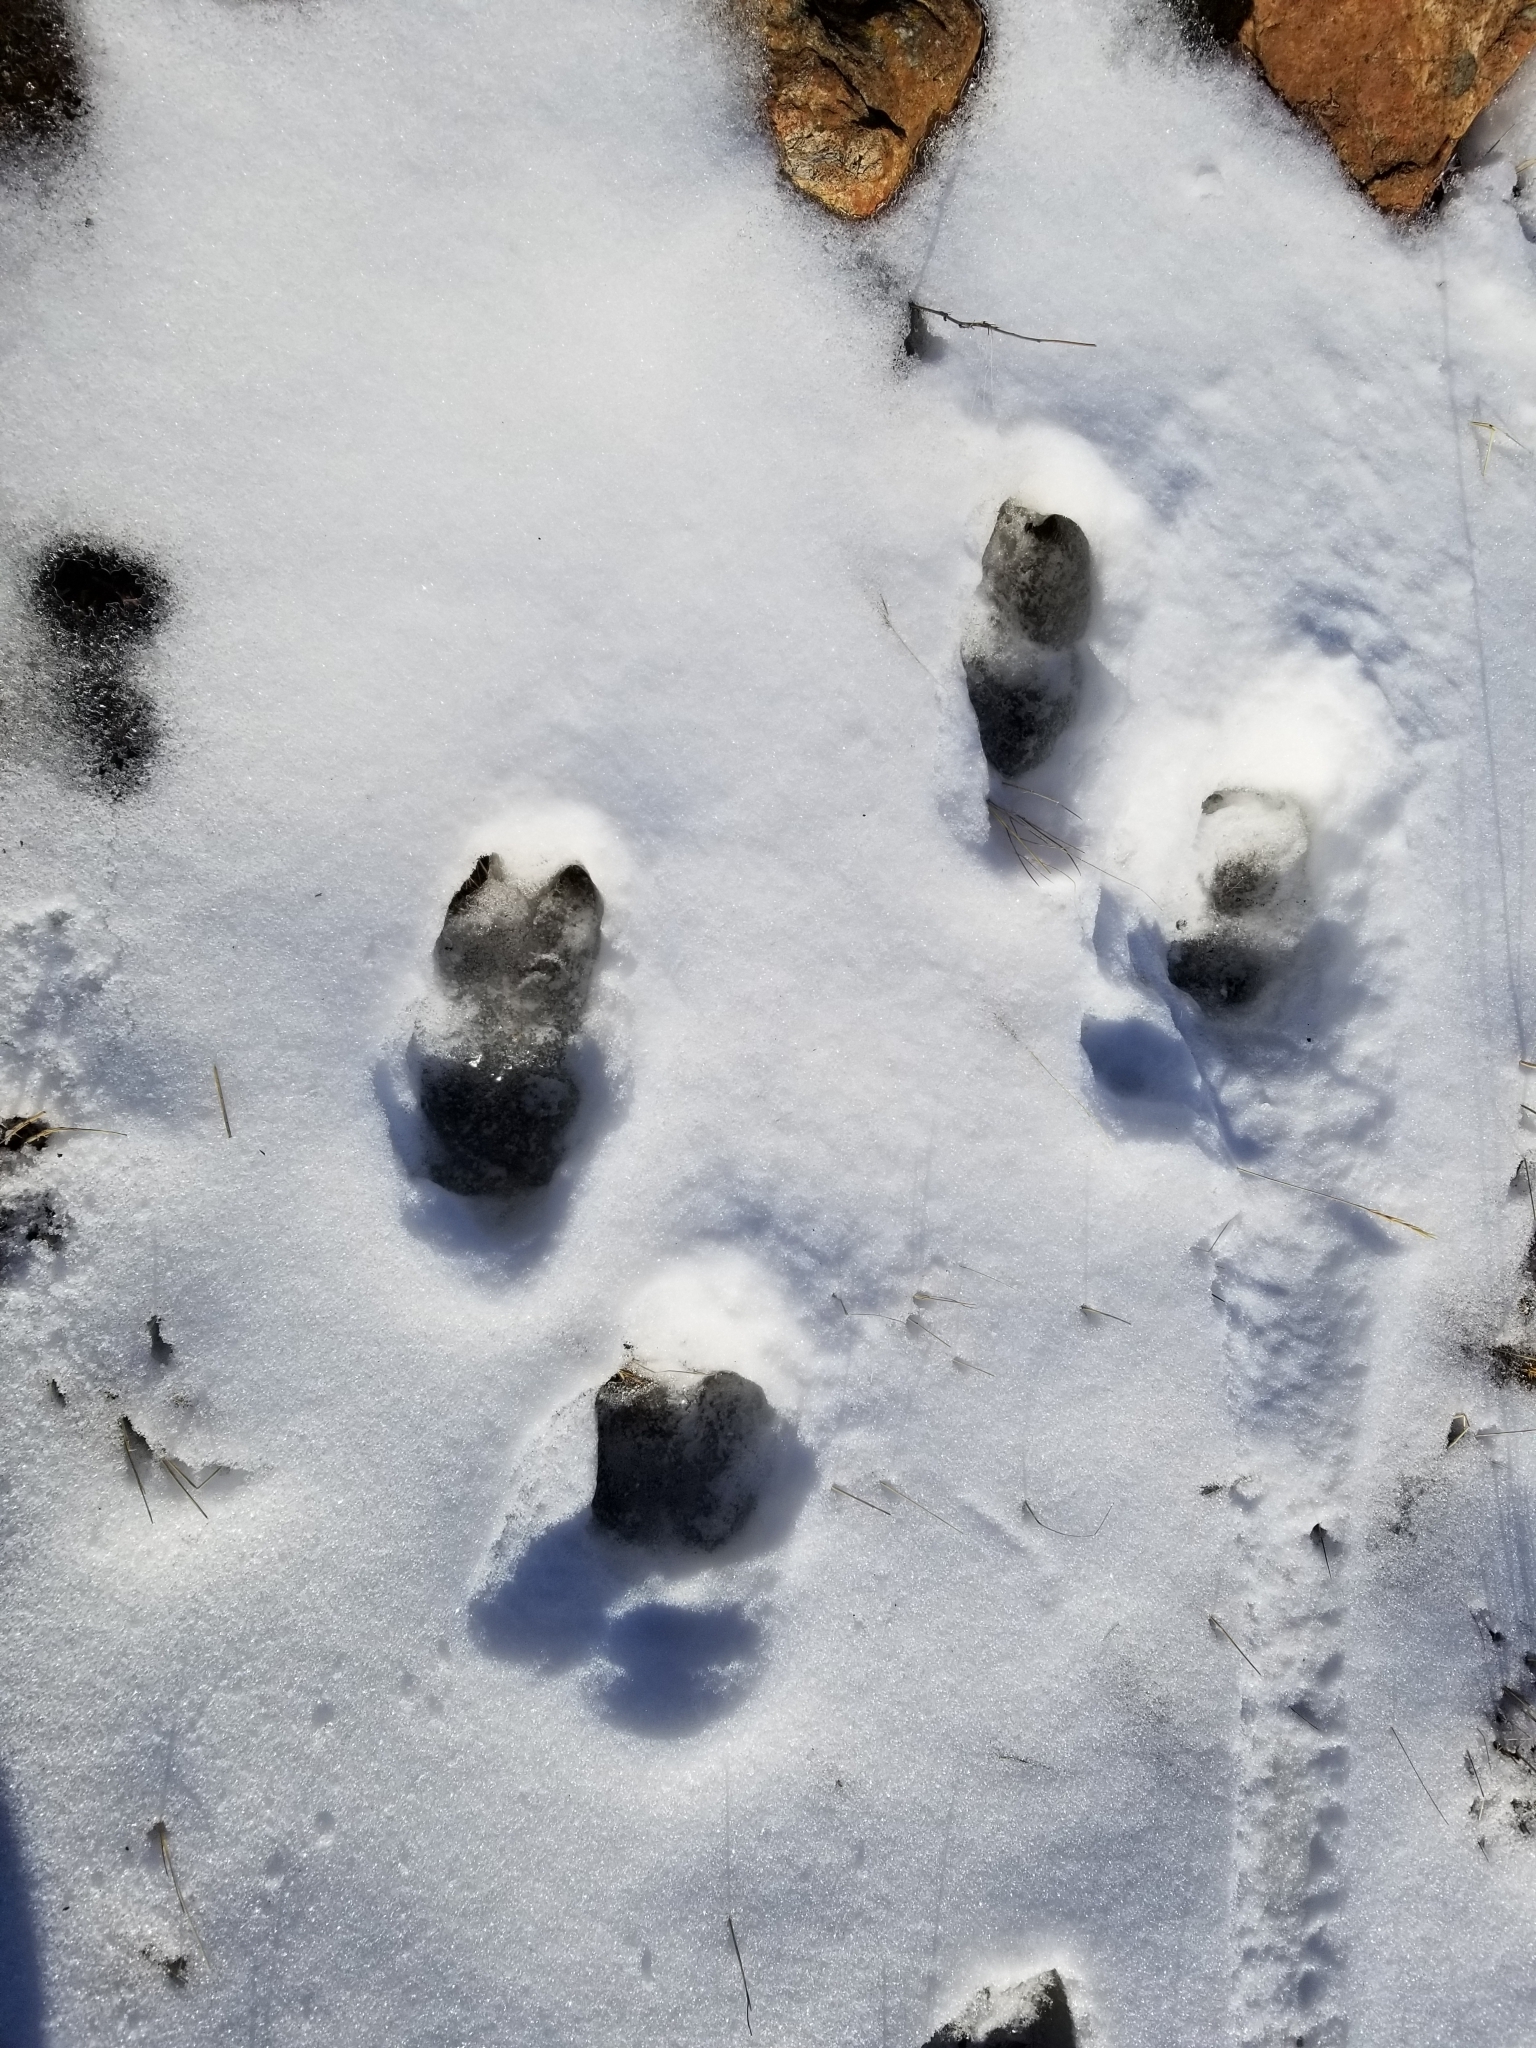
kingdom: Animalia
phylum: Chordata
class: Mammalia
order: Artiodactyla
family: Bovidae
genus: Ovis
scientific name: Ovis dalli
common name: Dall's sheep
